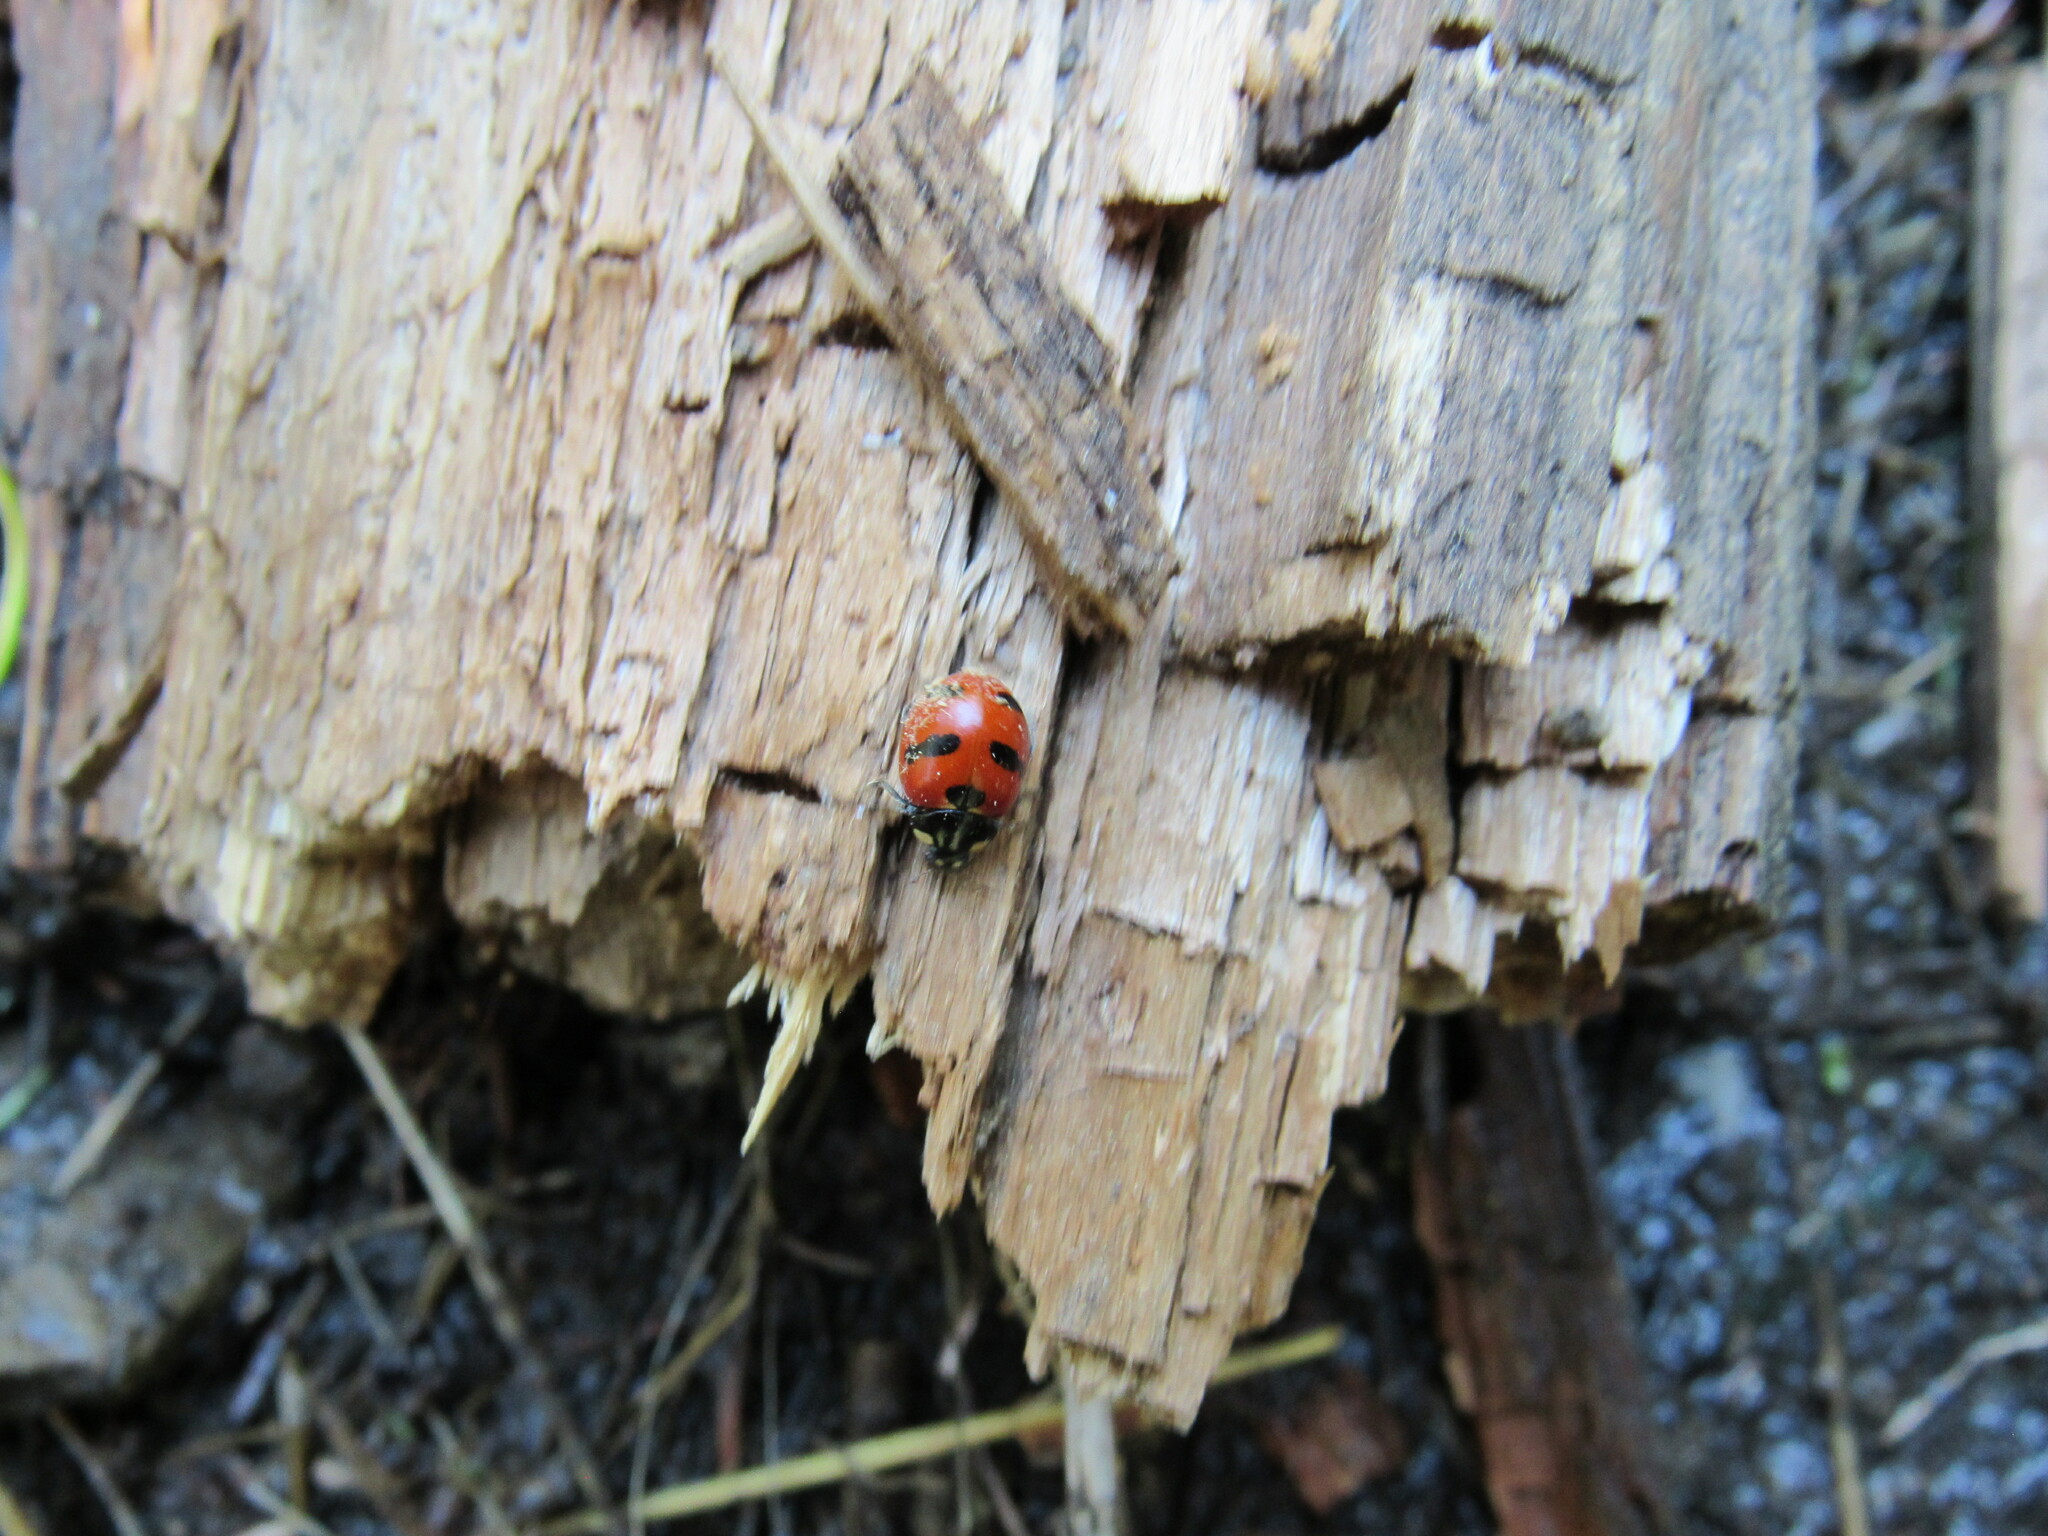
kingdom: Animalia
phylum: Arthropoda
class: Insecta
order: Coleoptera
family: Coccinellidae
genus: Coccinella
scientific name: Coccinella monticola
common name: Mountain lady beetle
